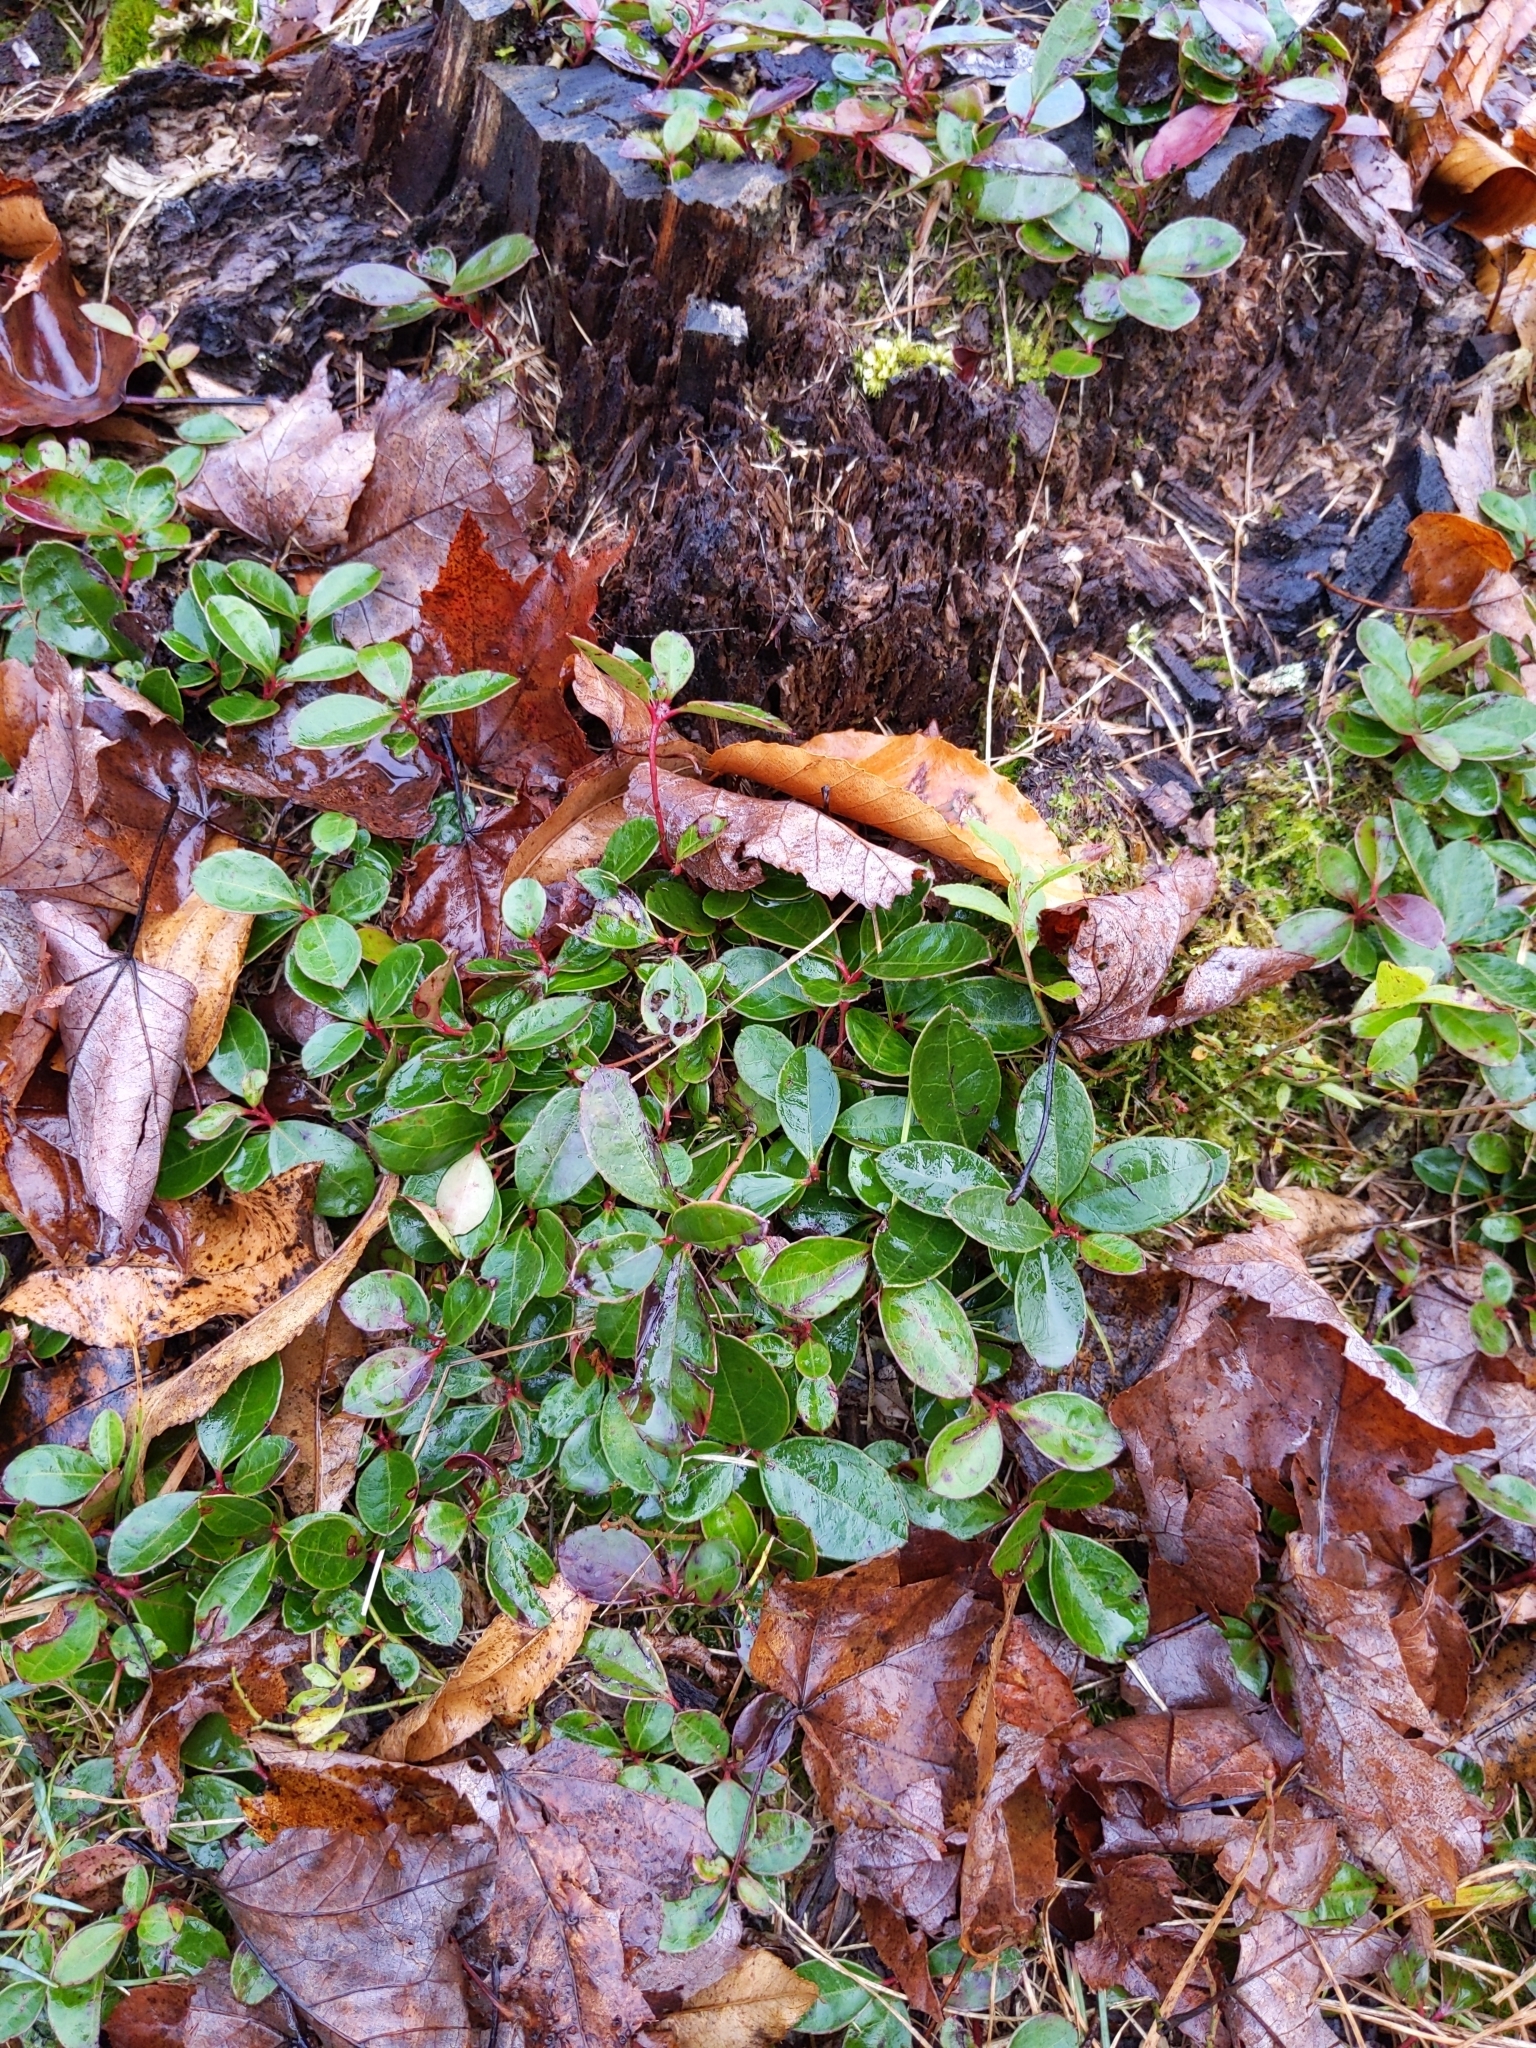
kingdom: Plantae
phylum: Tracheophyta
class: Magnoliopsida
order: Ericales
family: Ericaceae
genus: Gaultheria
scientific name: Gaultheria procumbens
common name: Checkerberry
